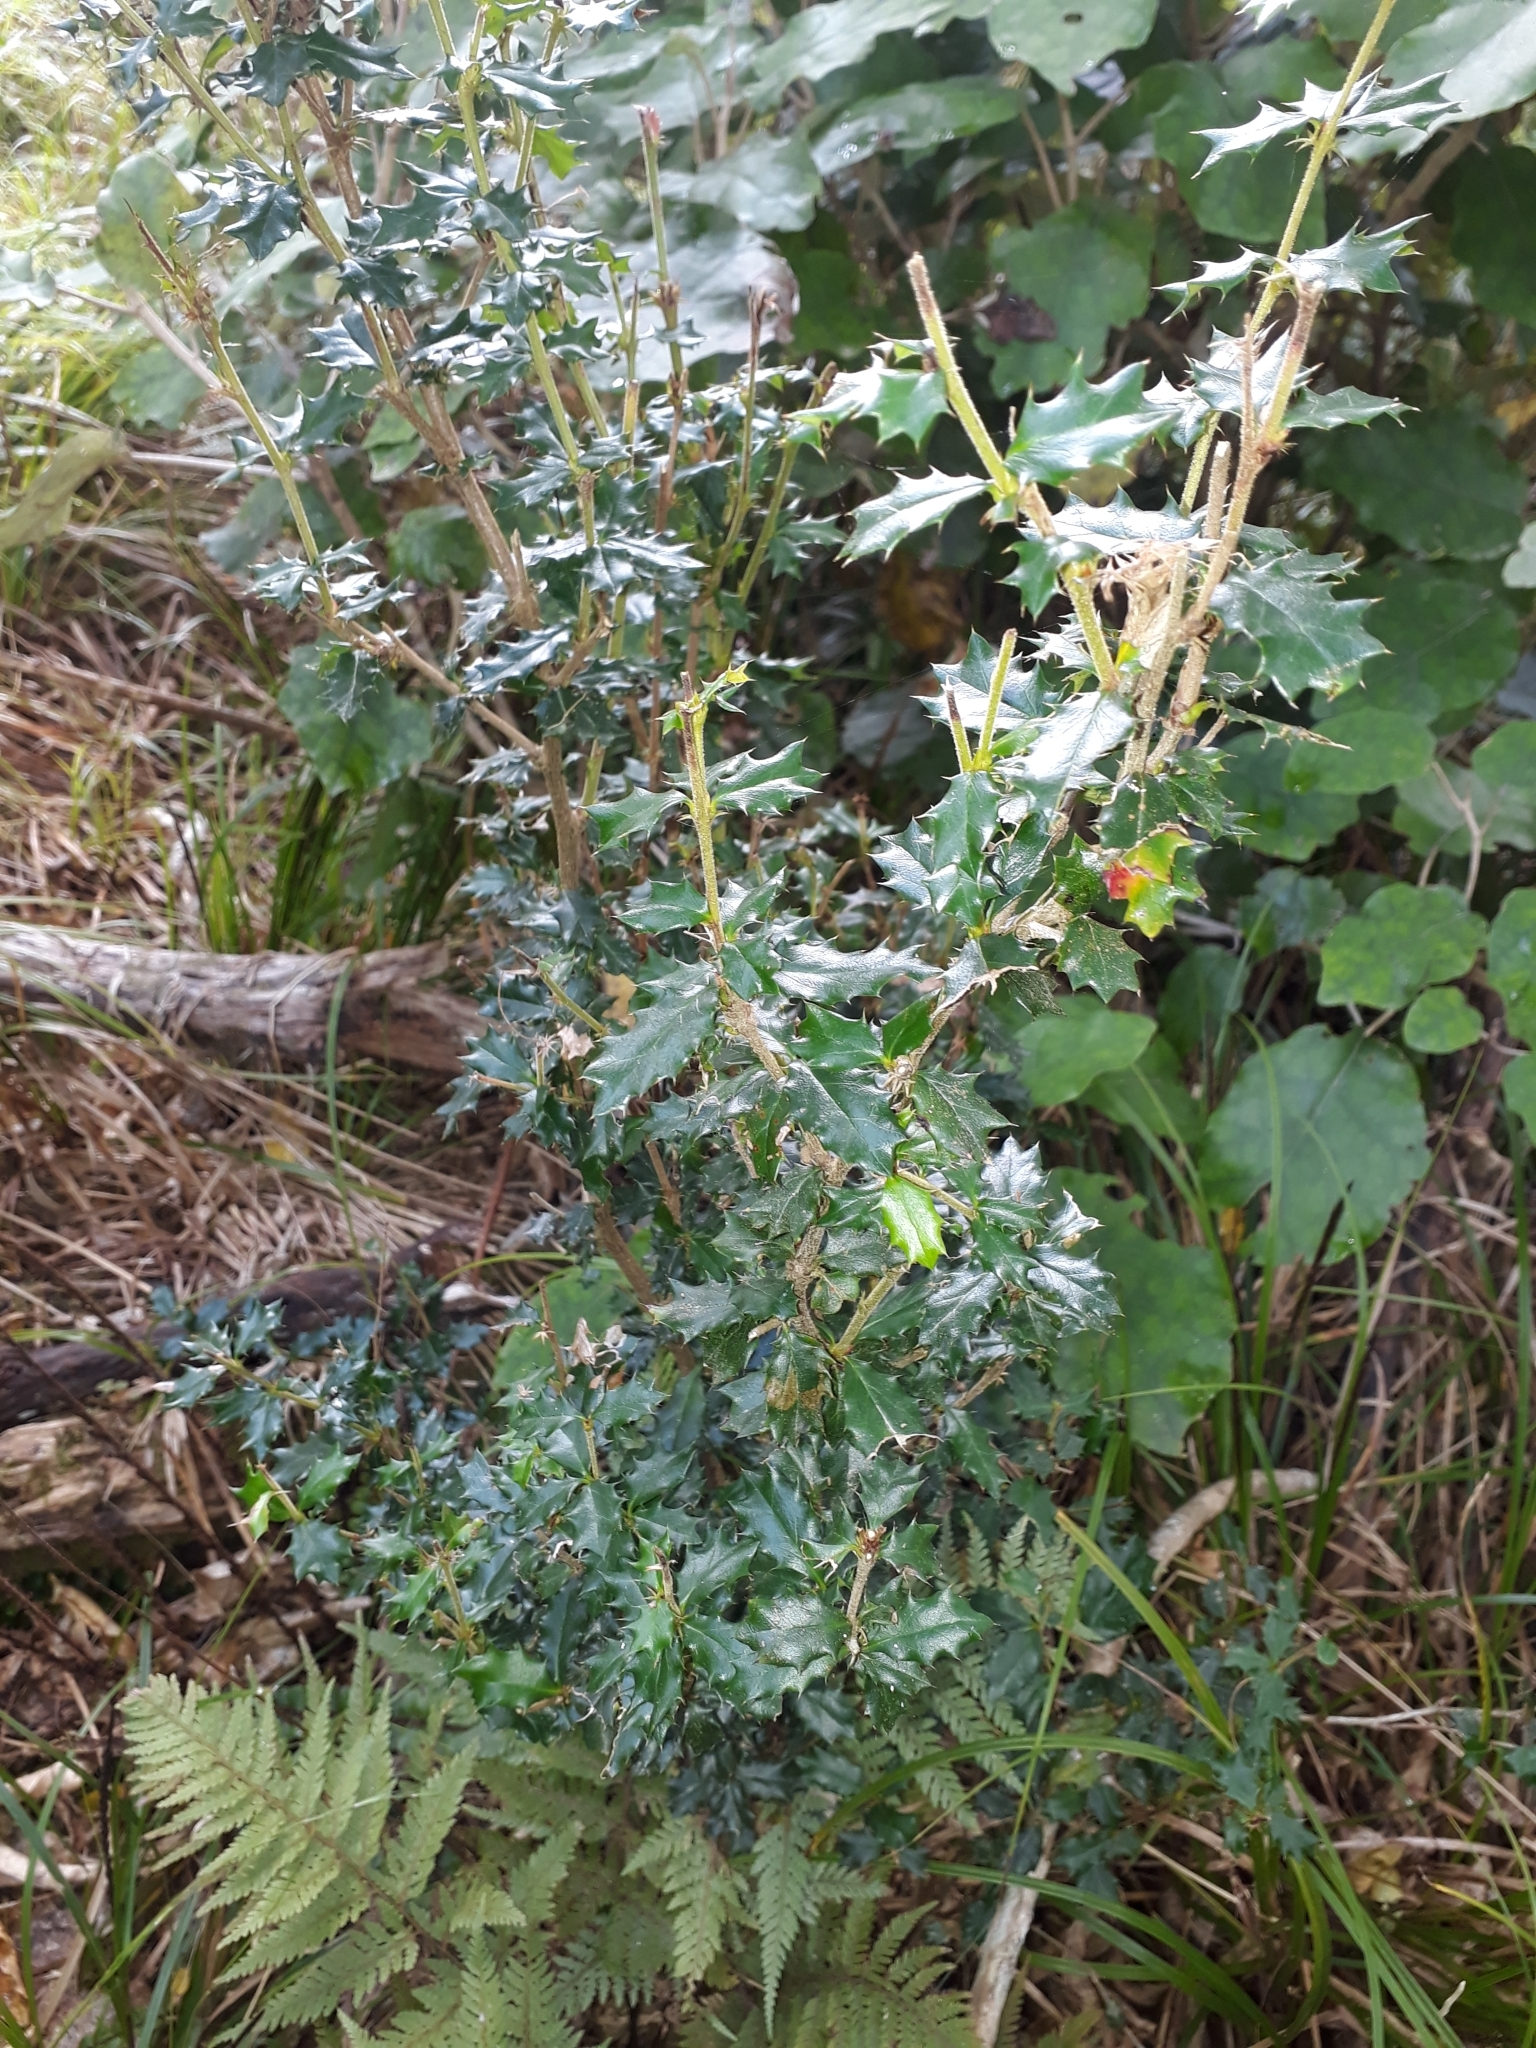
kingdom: Plantae
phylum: Tracheophyta
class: Magnoliopsida
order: Ranunculales
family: Berberidaceae
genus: Berberis
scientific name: Berberis darwinii
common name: Darwin's barberry
